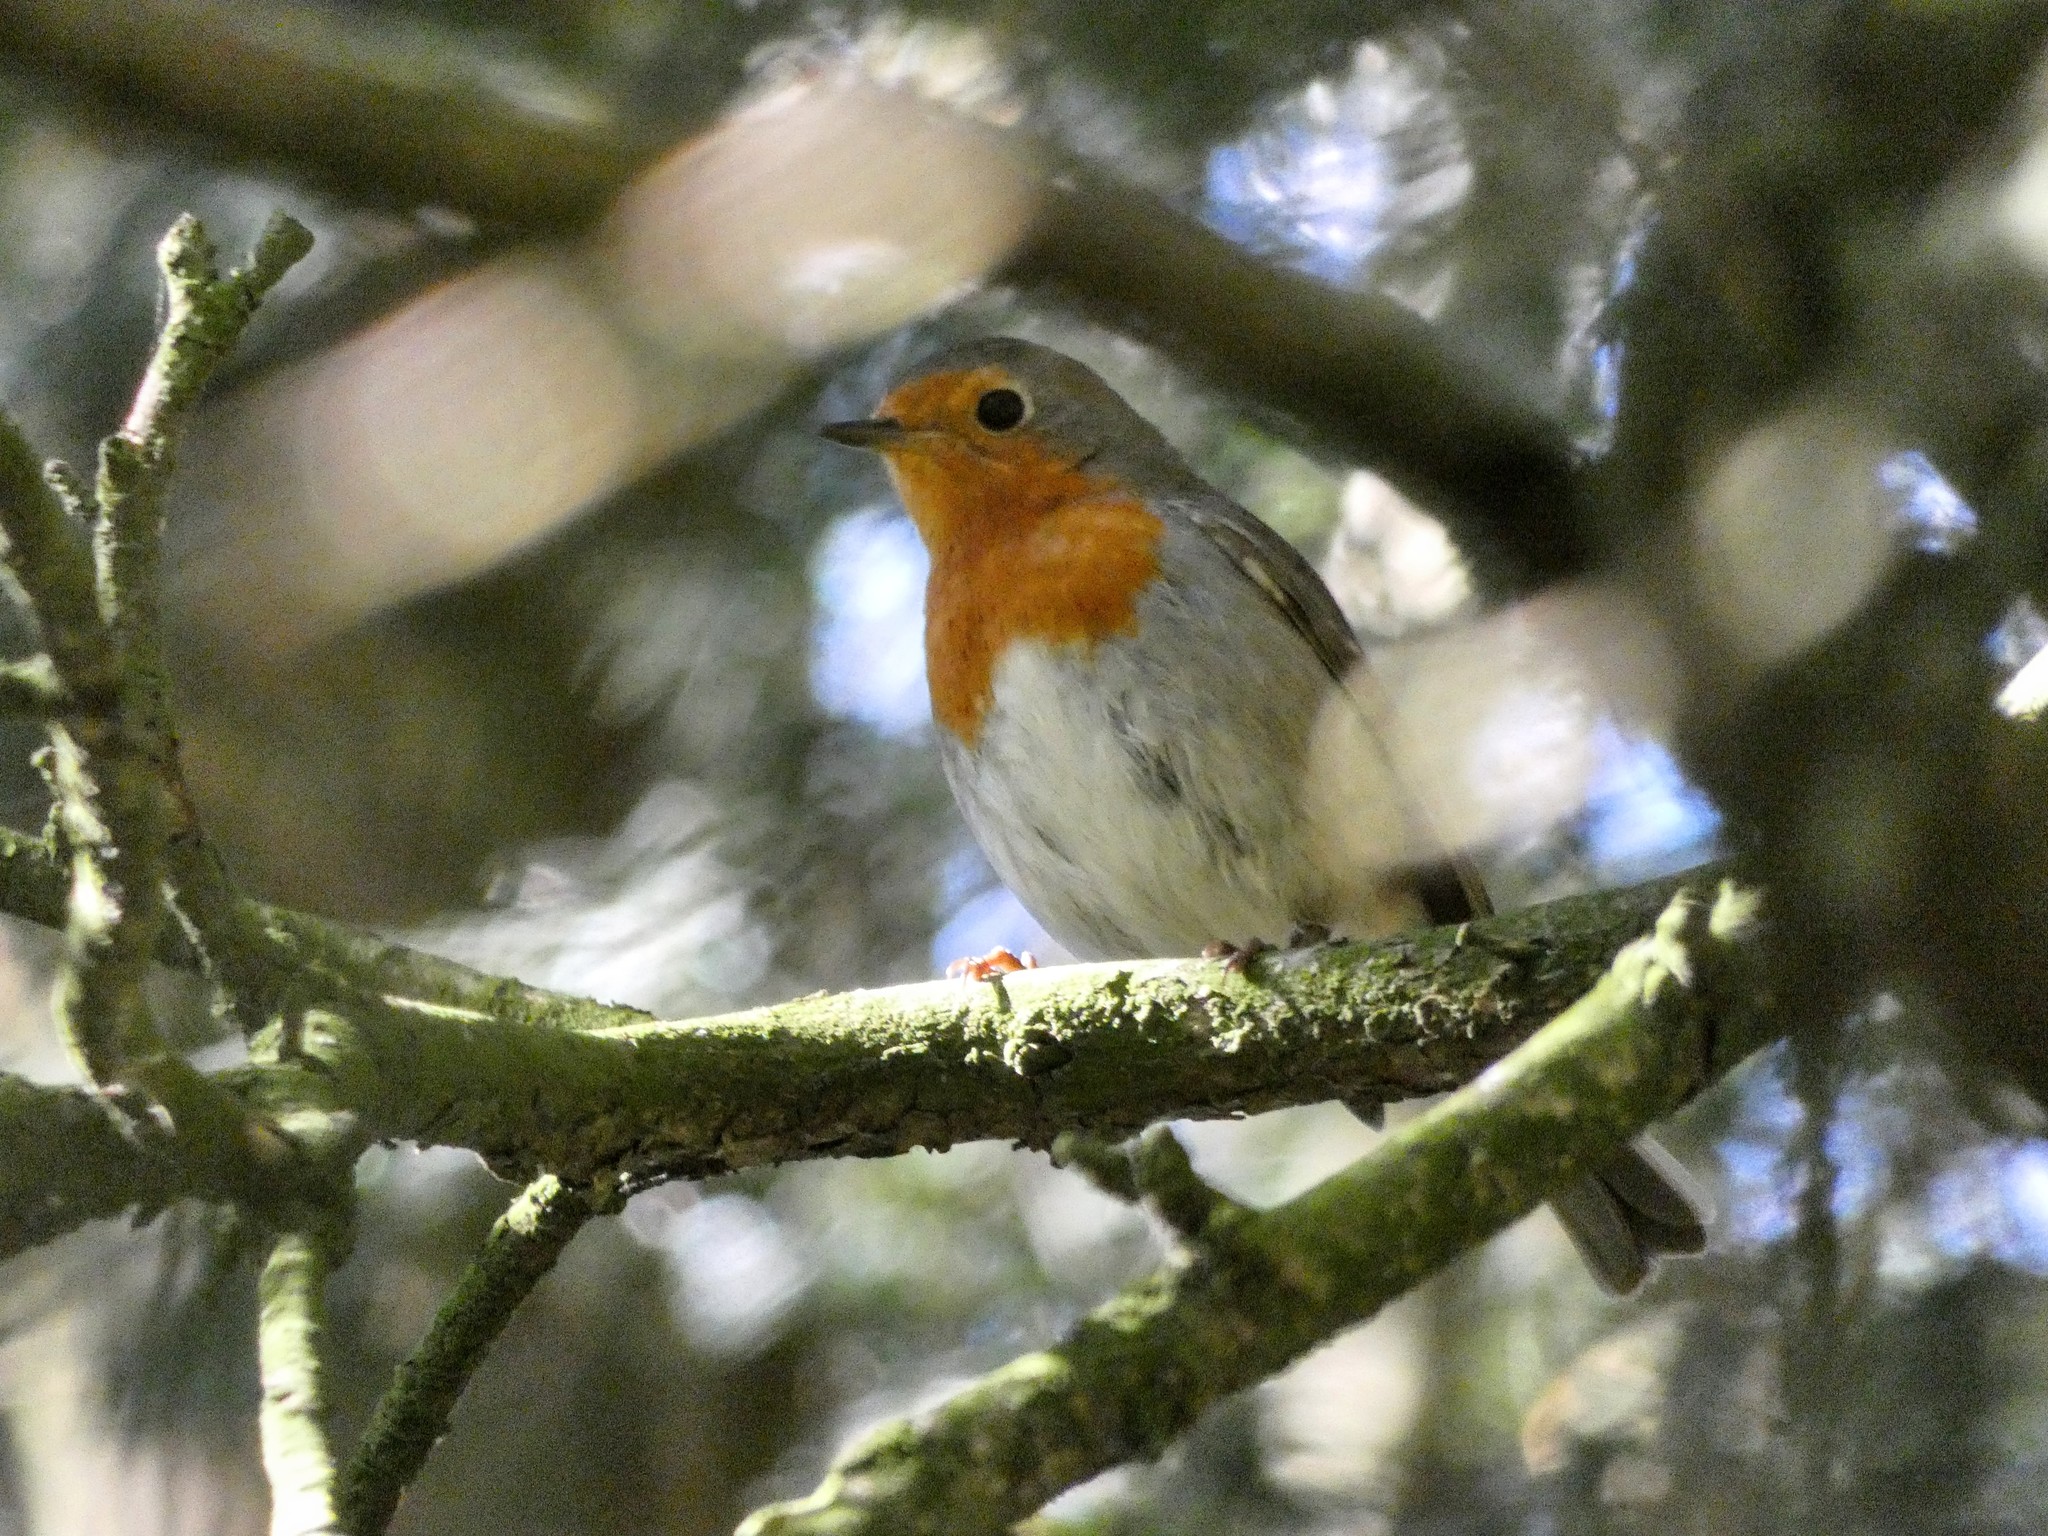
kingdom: Animalia
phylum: Chordata
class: Aves
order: Passeriformes
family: Muscicapidae
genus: Erithacus
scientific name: Erithacus rubecula
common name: European robin
